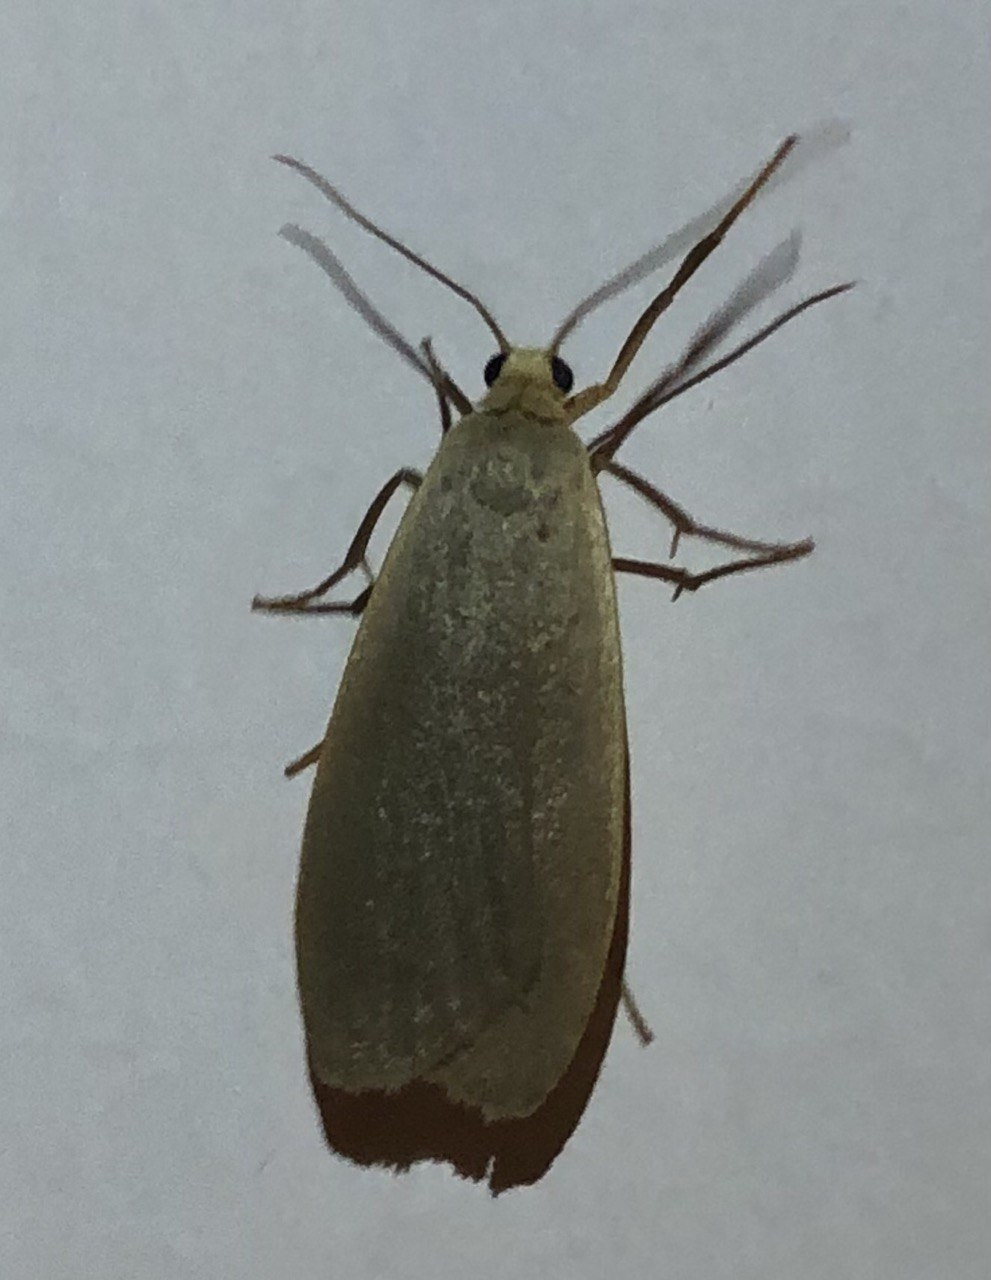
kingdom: Animalia
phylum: Arthropoda
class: Insecta
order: Lepidoptera
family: Erebidae
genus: Collita
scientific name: Collita griseola
